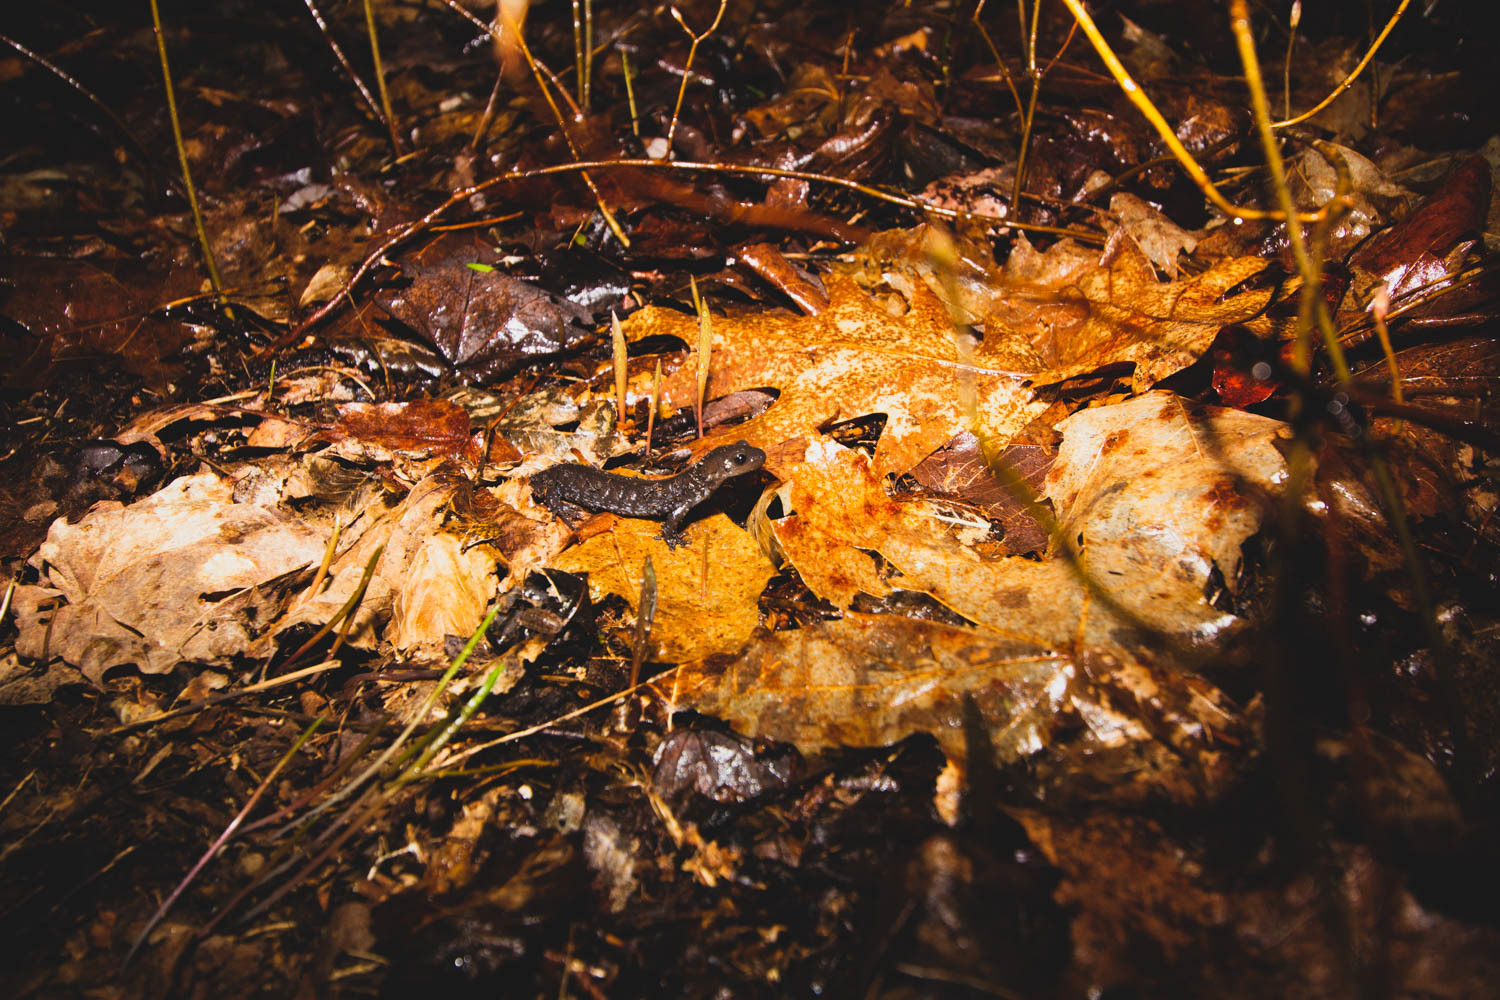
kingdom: Animalia
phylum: Chordata
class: Amphibia
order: Caudata
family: Ambystomatidae
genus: Ambystoma
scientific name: Ambystoma laterale
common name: Blue-spotted salamander
